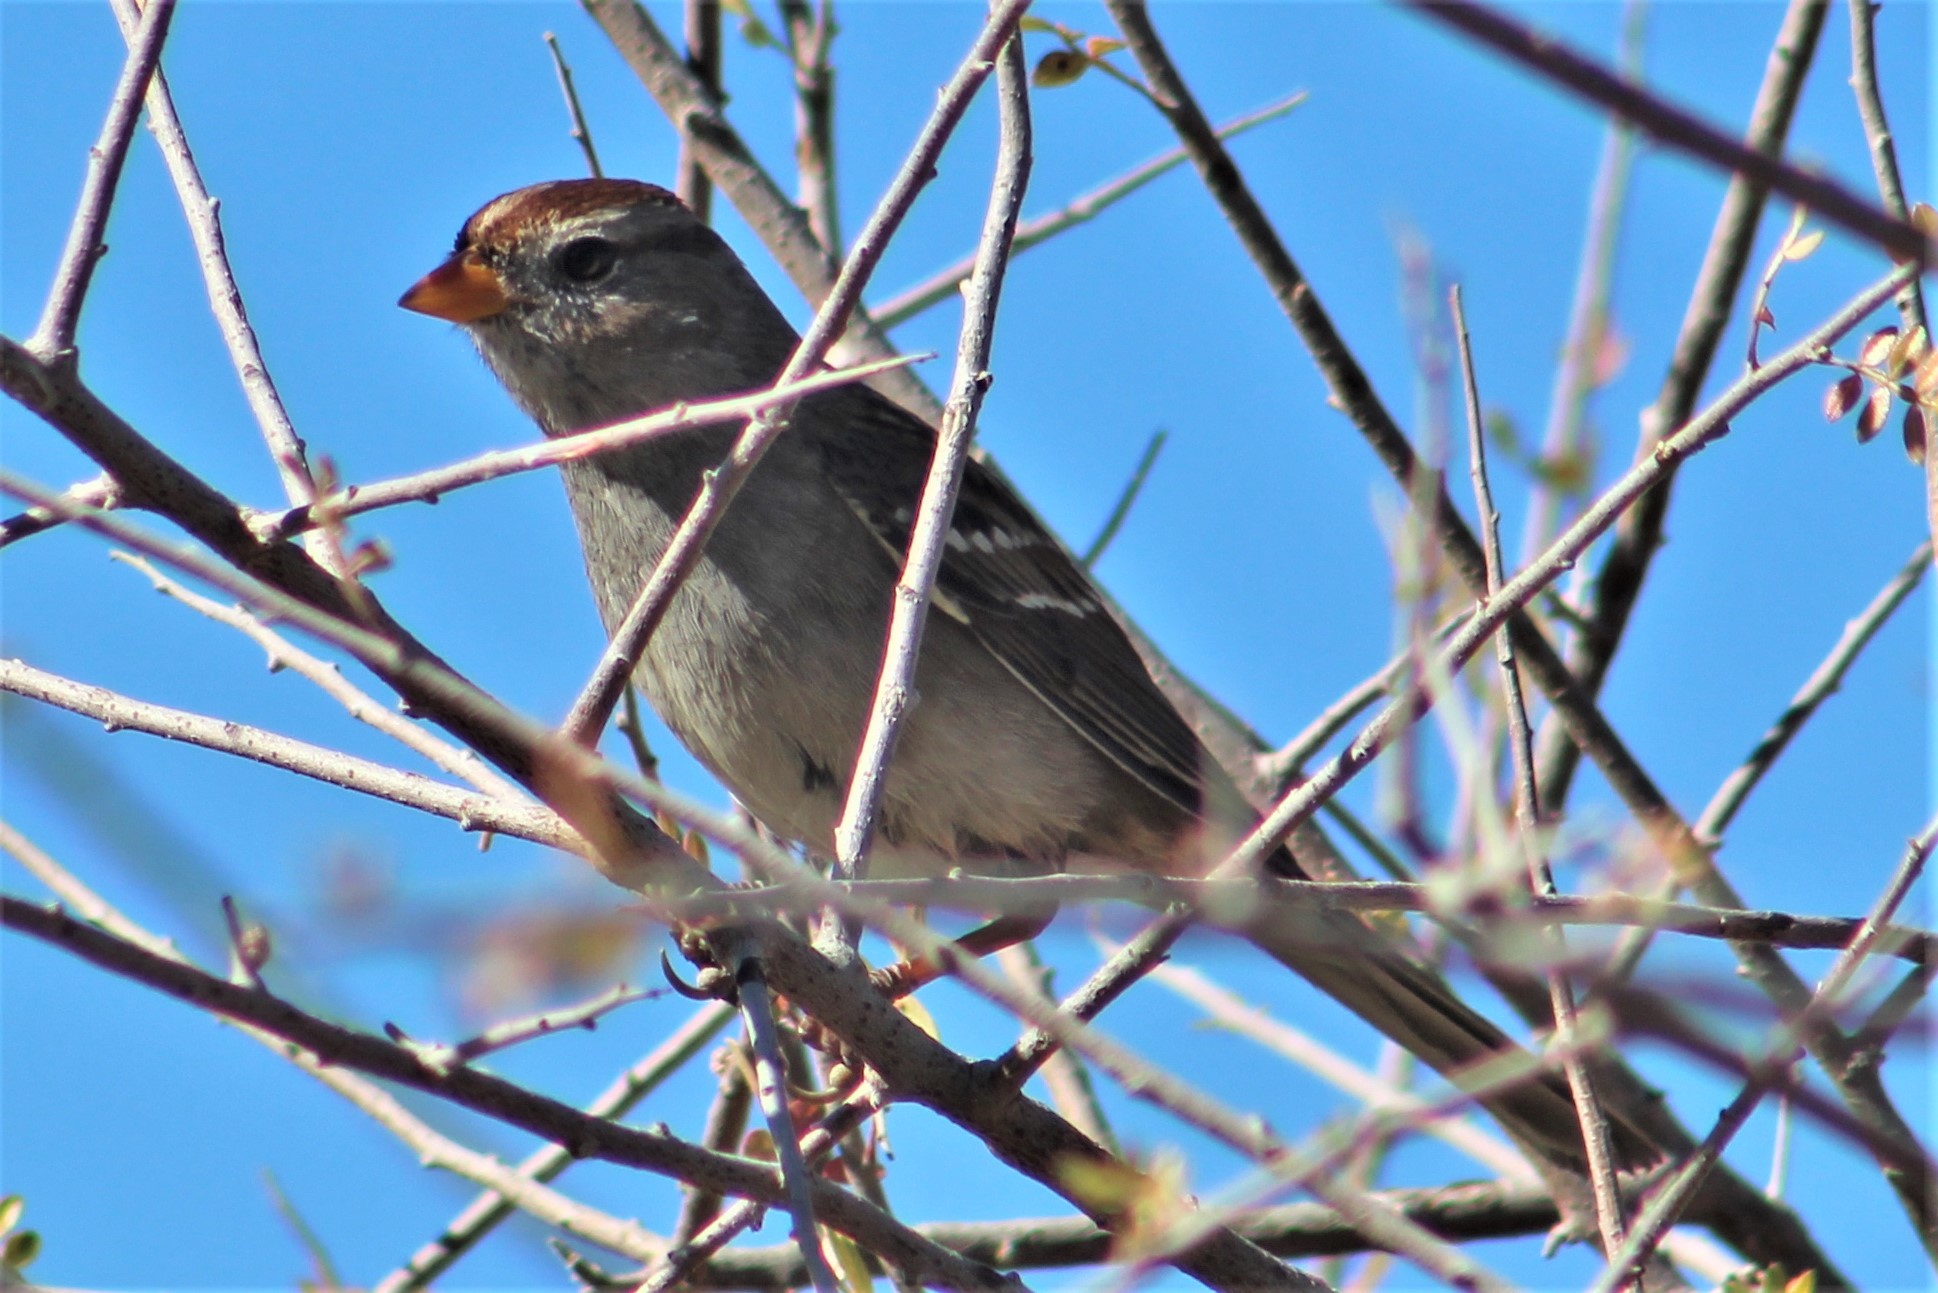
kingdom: Animalia
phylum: Chordata
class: Aves
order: Passeriformes
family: Passerellidae
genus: Zonotrichia
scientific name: Zonotrichia leucophrys
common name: White-crowned sparrow
